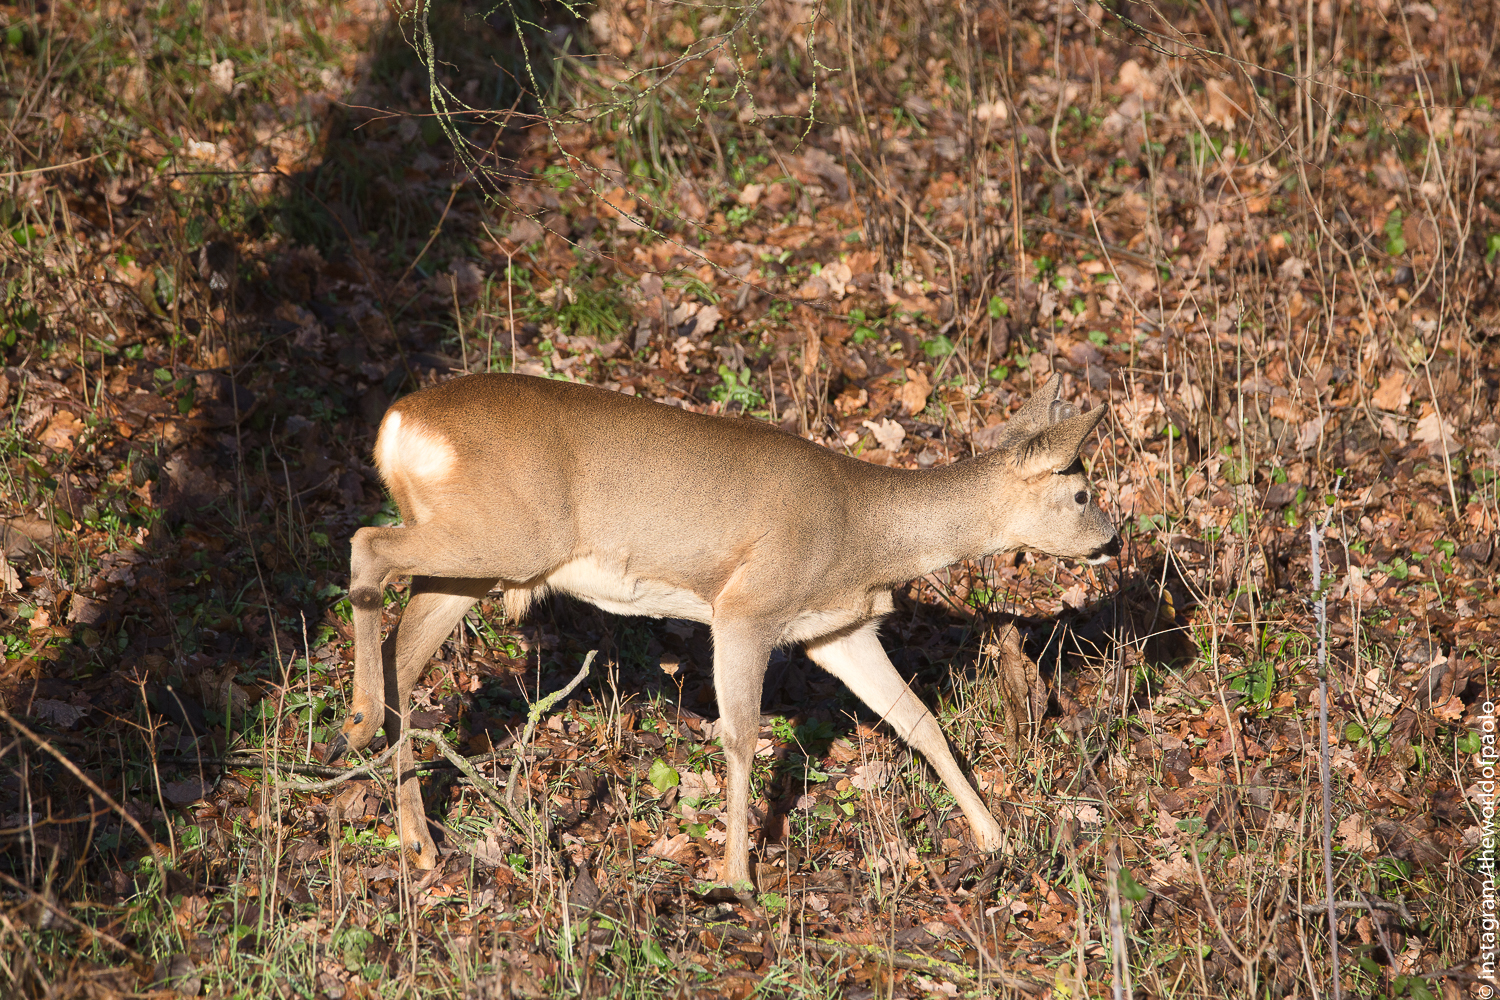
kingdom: Animalia
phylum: Chordata
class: Mammalia
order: Artiodactyla
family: Cervidae
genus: Capreolus
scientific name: Capreolus capreolus
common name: Western roe deer
